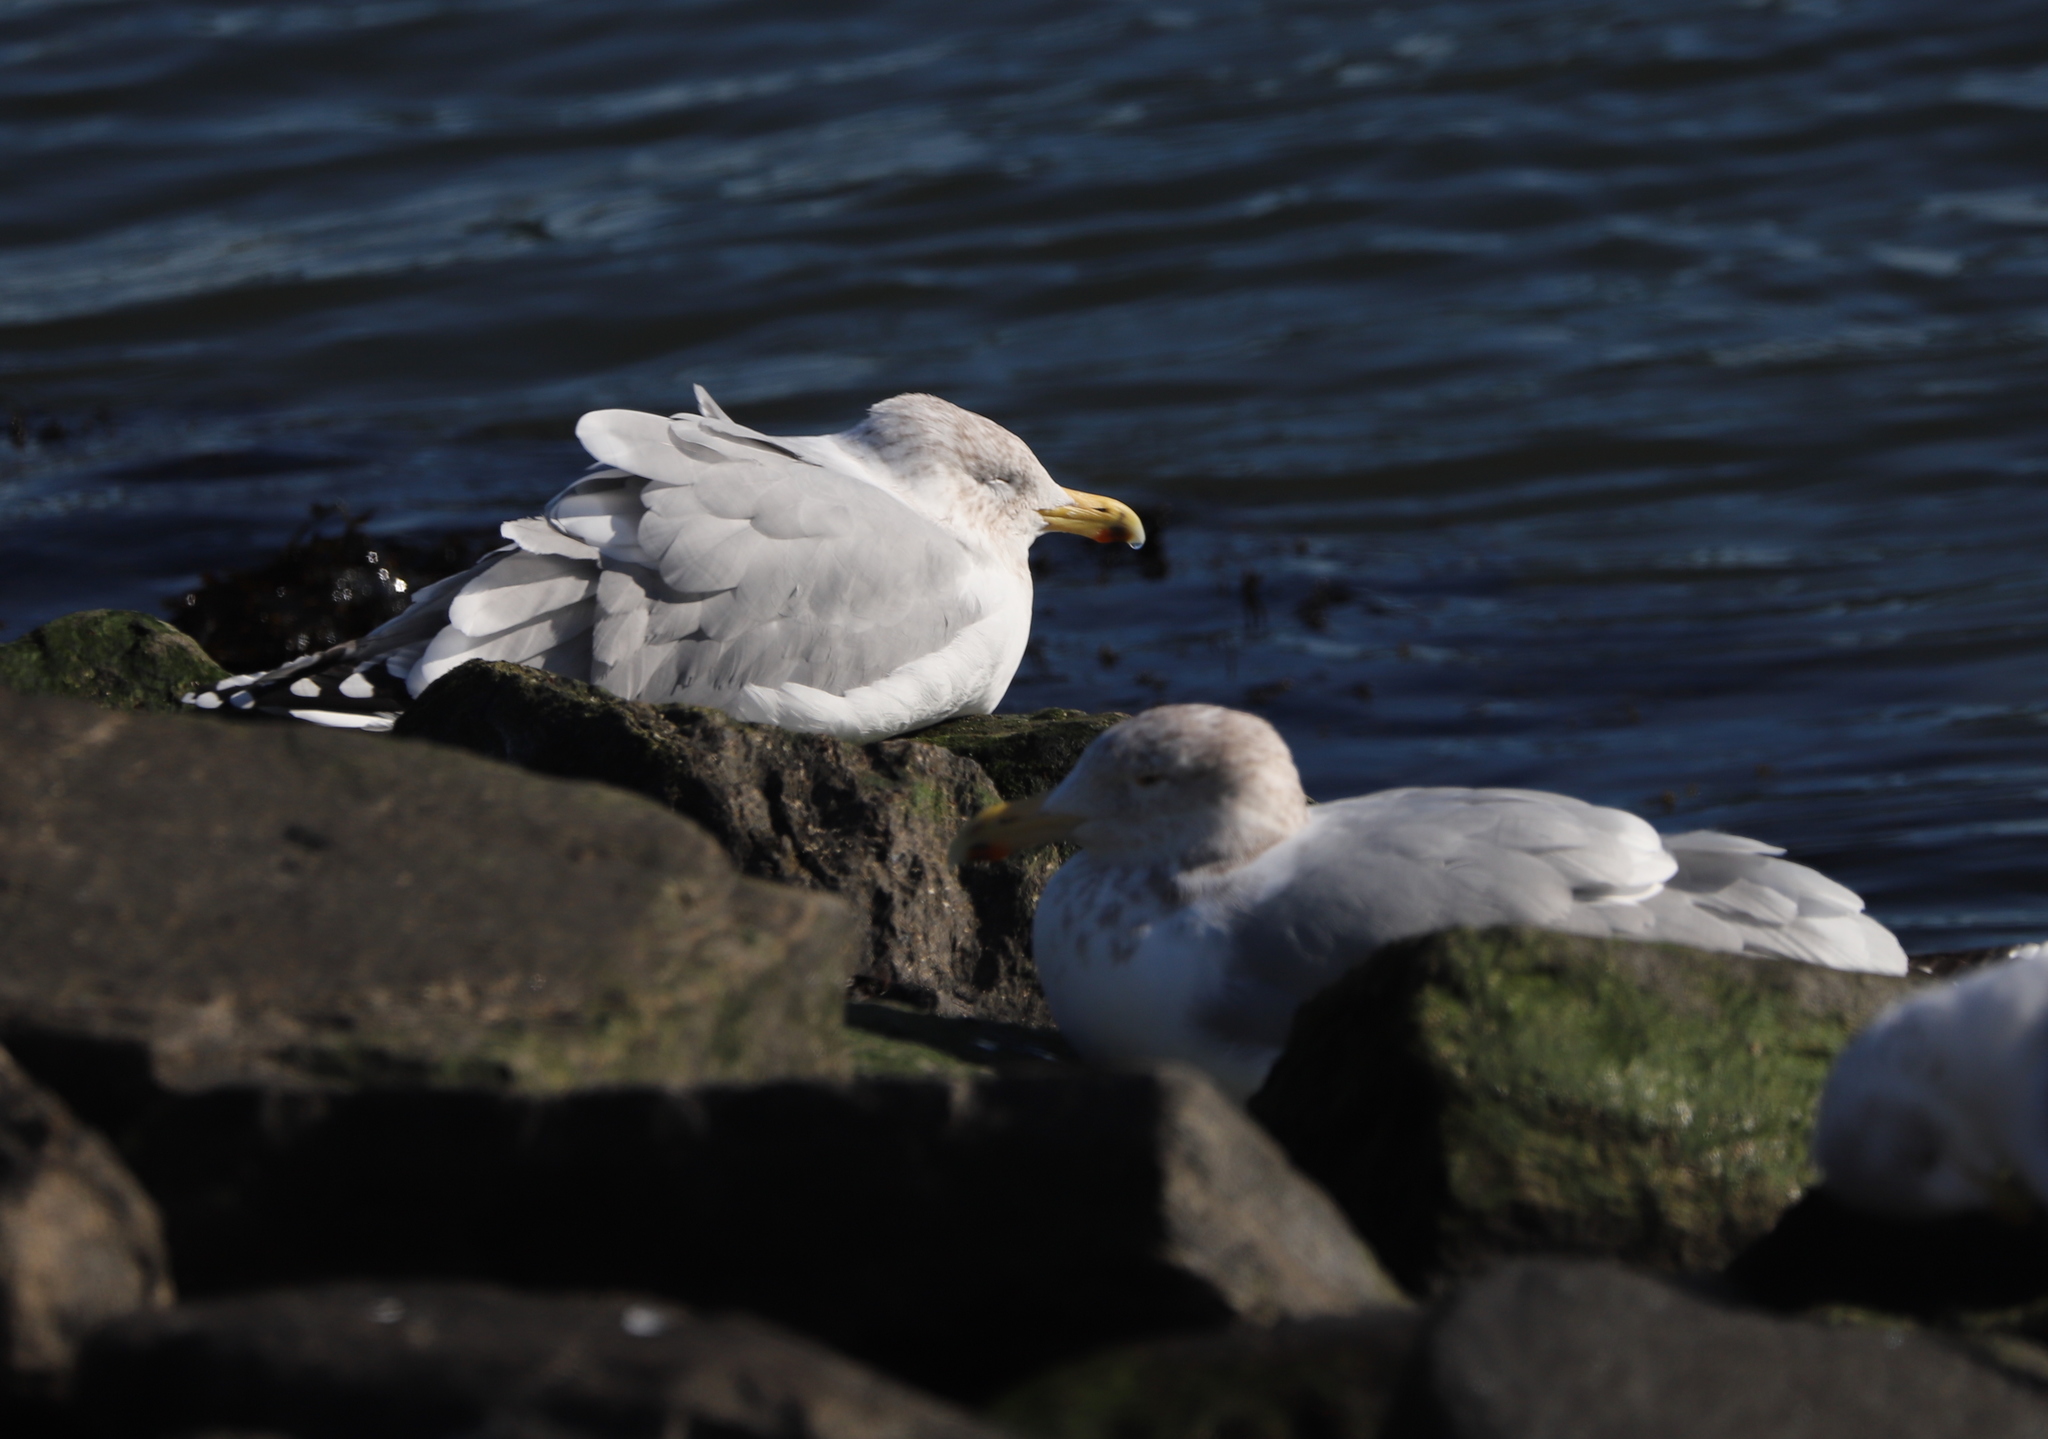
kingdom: Animalia
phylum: Chordata
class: Aves
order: Charadriiformes
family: Laridae
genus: Larus
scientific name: Larus argentatus
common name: Herring gull
